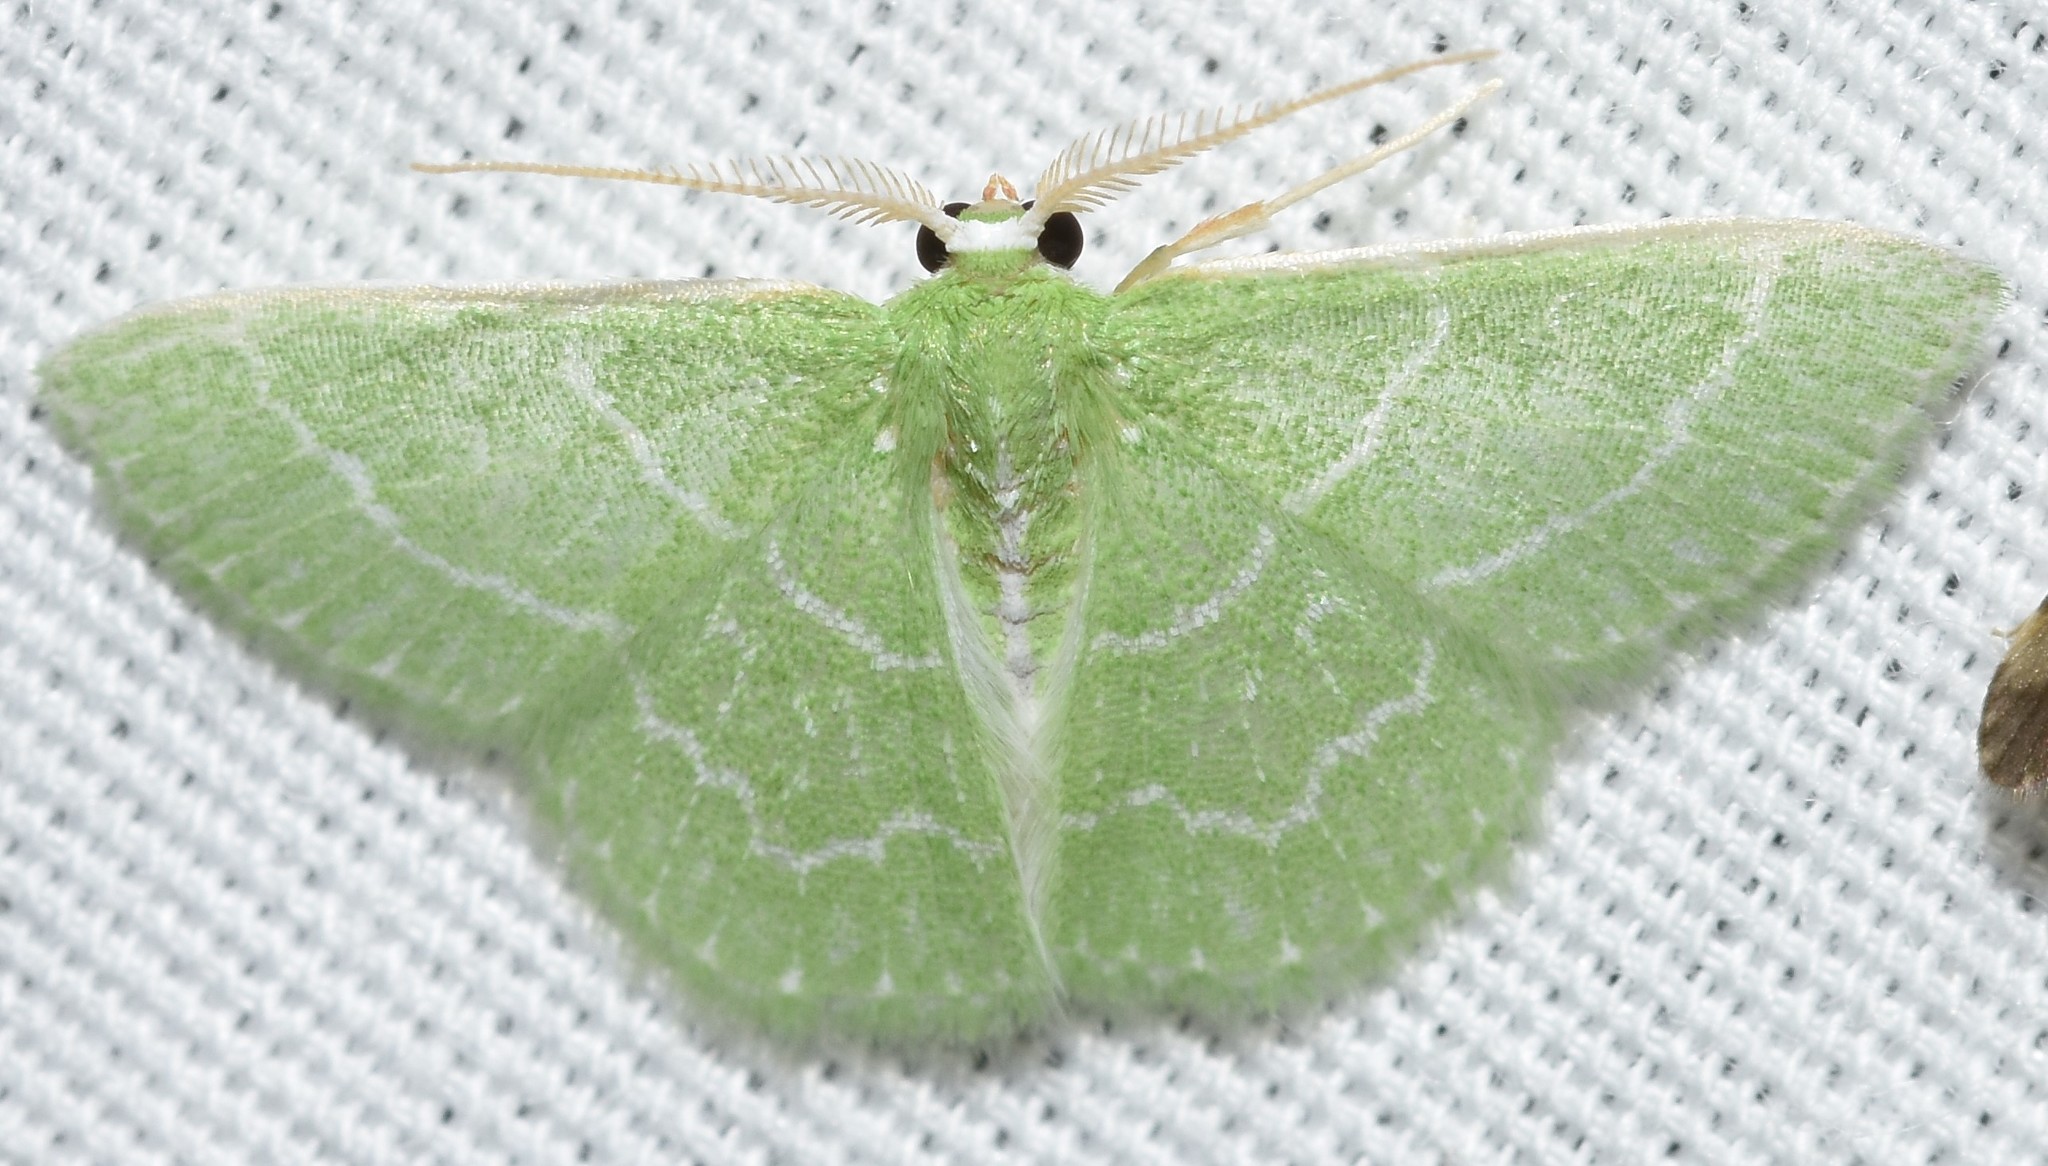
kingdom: Animalia
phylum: Arthropoda
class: Insecta
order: Lepidoptera
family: Geometridae
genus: Synchlora
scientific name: Synchlora aerata
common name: Wavy-lined emerald
